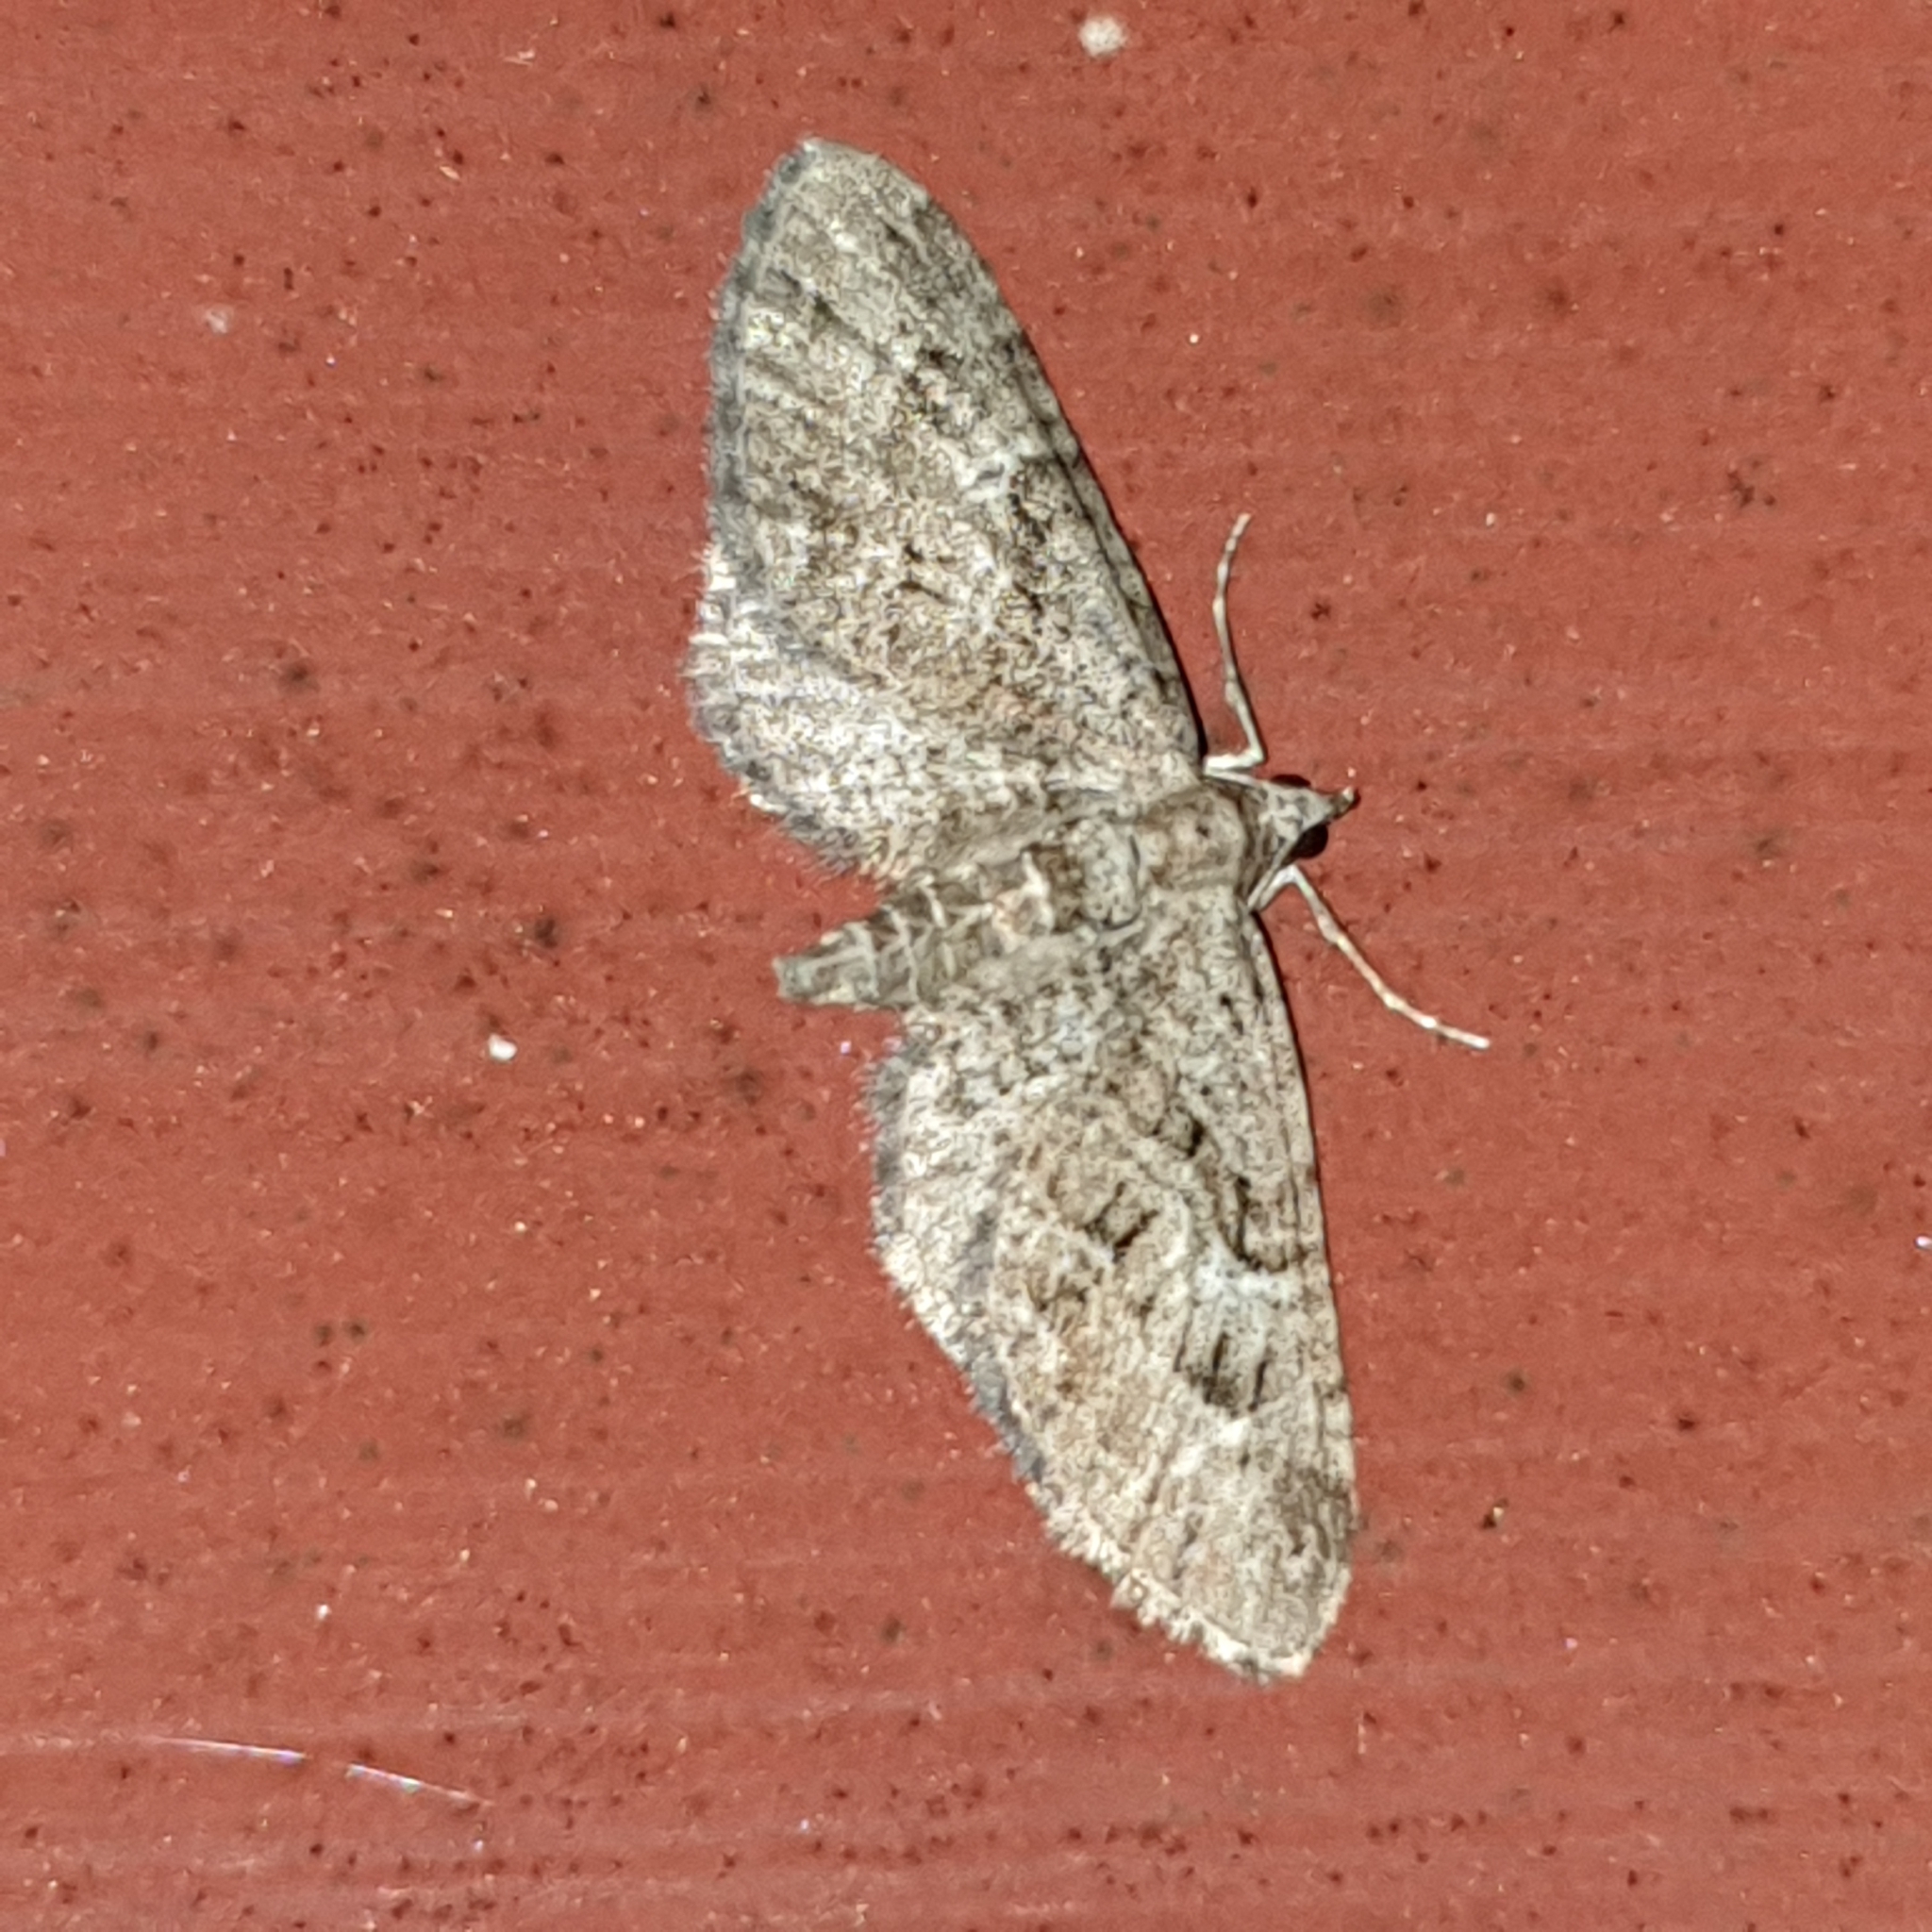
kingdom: Animalia
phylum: Arthropoda
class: Insecta
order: Lepidoptera
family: Geometridae
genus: Eupithecia
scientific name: Eupithecia pusillata
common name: Juniper pug
